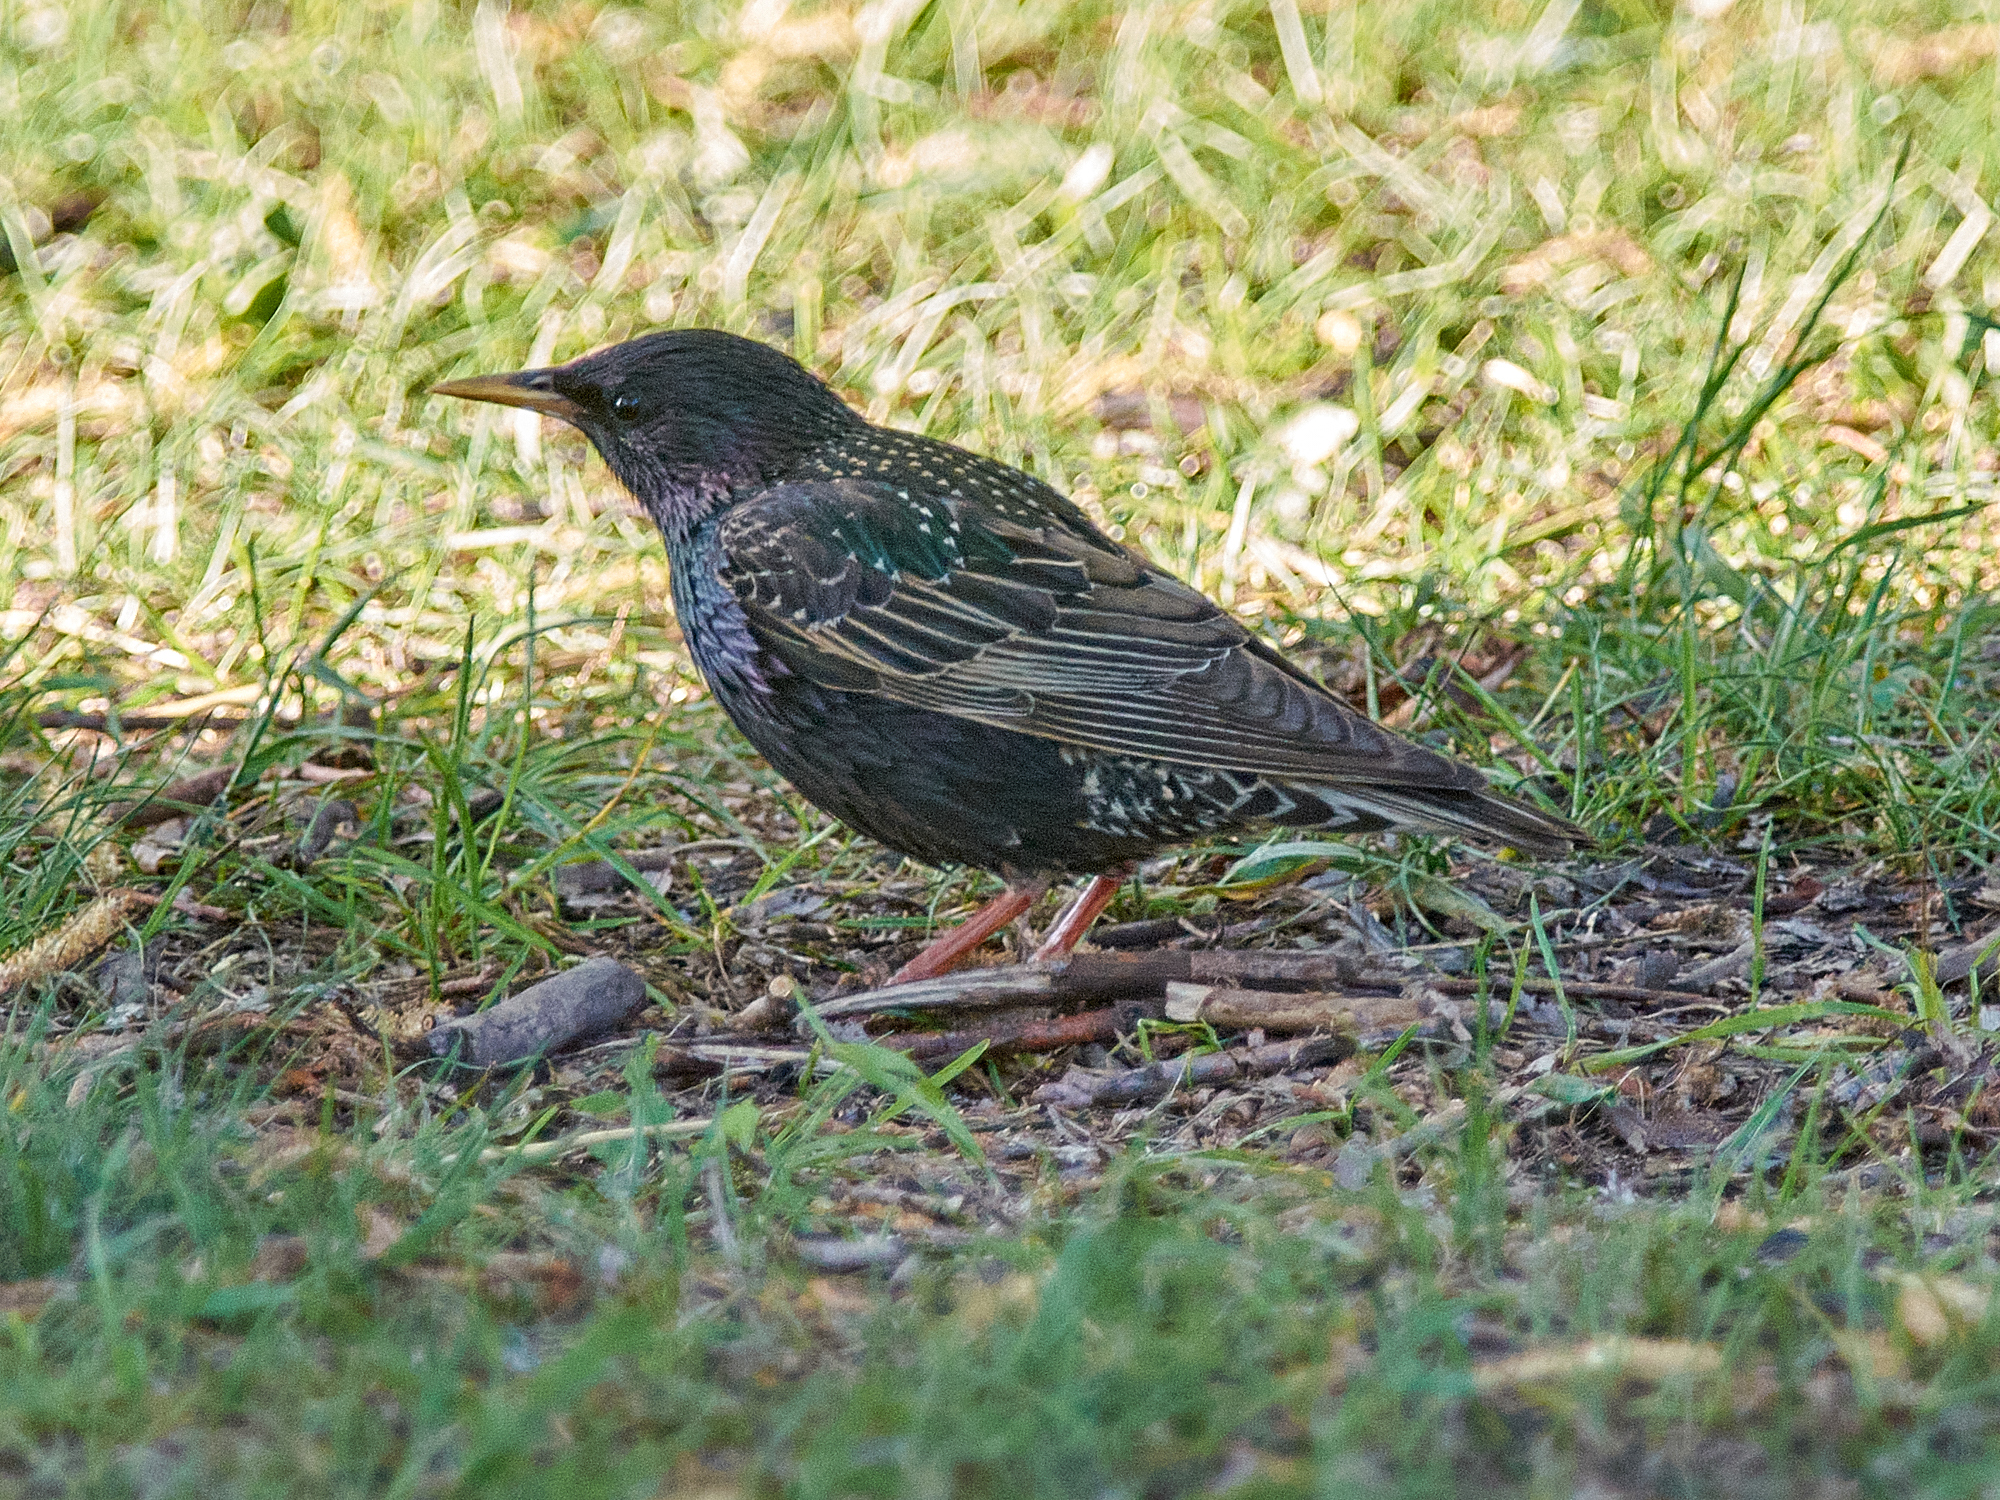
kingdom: Animalia
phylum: Chordata
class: Aves
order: Passeriformes
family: Sturnidae
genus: Sturnus
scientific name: Sturnus vulgaris
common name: Common starling
